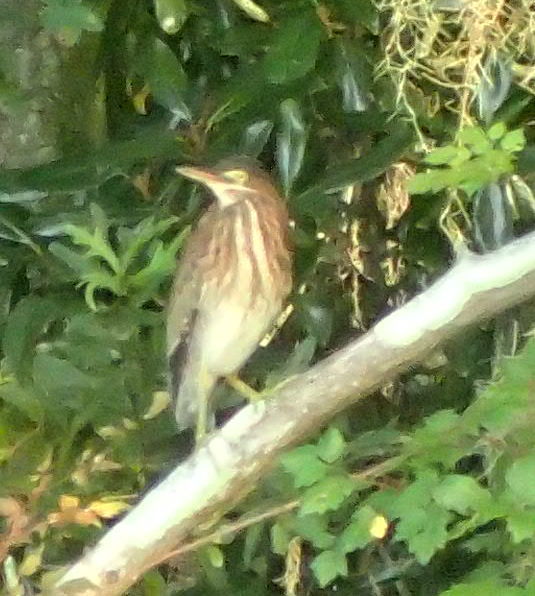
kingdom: Animalia
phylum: Chordata
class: Aves
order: Pelecaniformes
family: Ardeidae
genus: Butorides
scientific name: Butorides virescens
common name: Green heron
